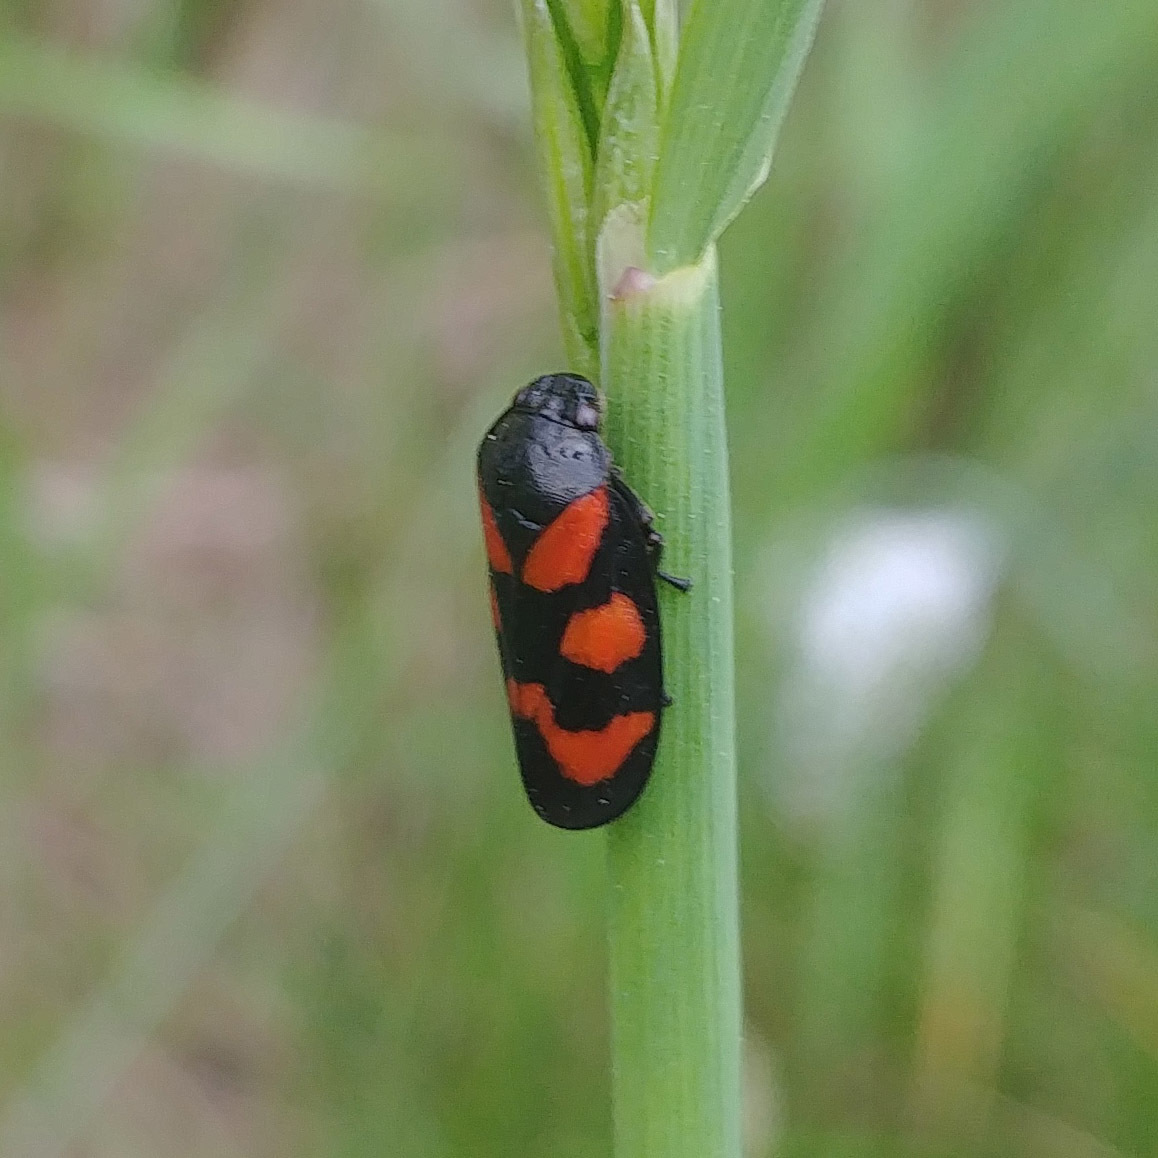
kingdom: Animalia
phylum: Arthropoda
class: Insecta
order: Hemiptera
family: Cercopidae
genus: Cercopis
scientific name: Cercopis vulnerata
